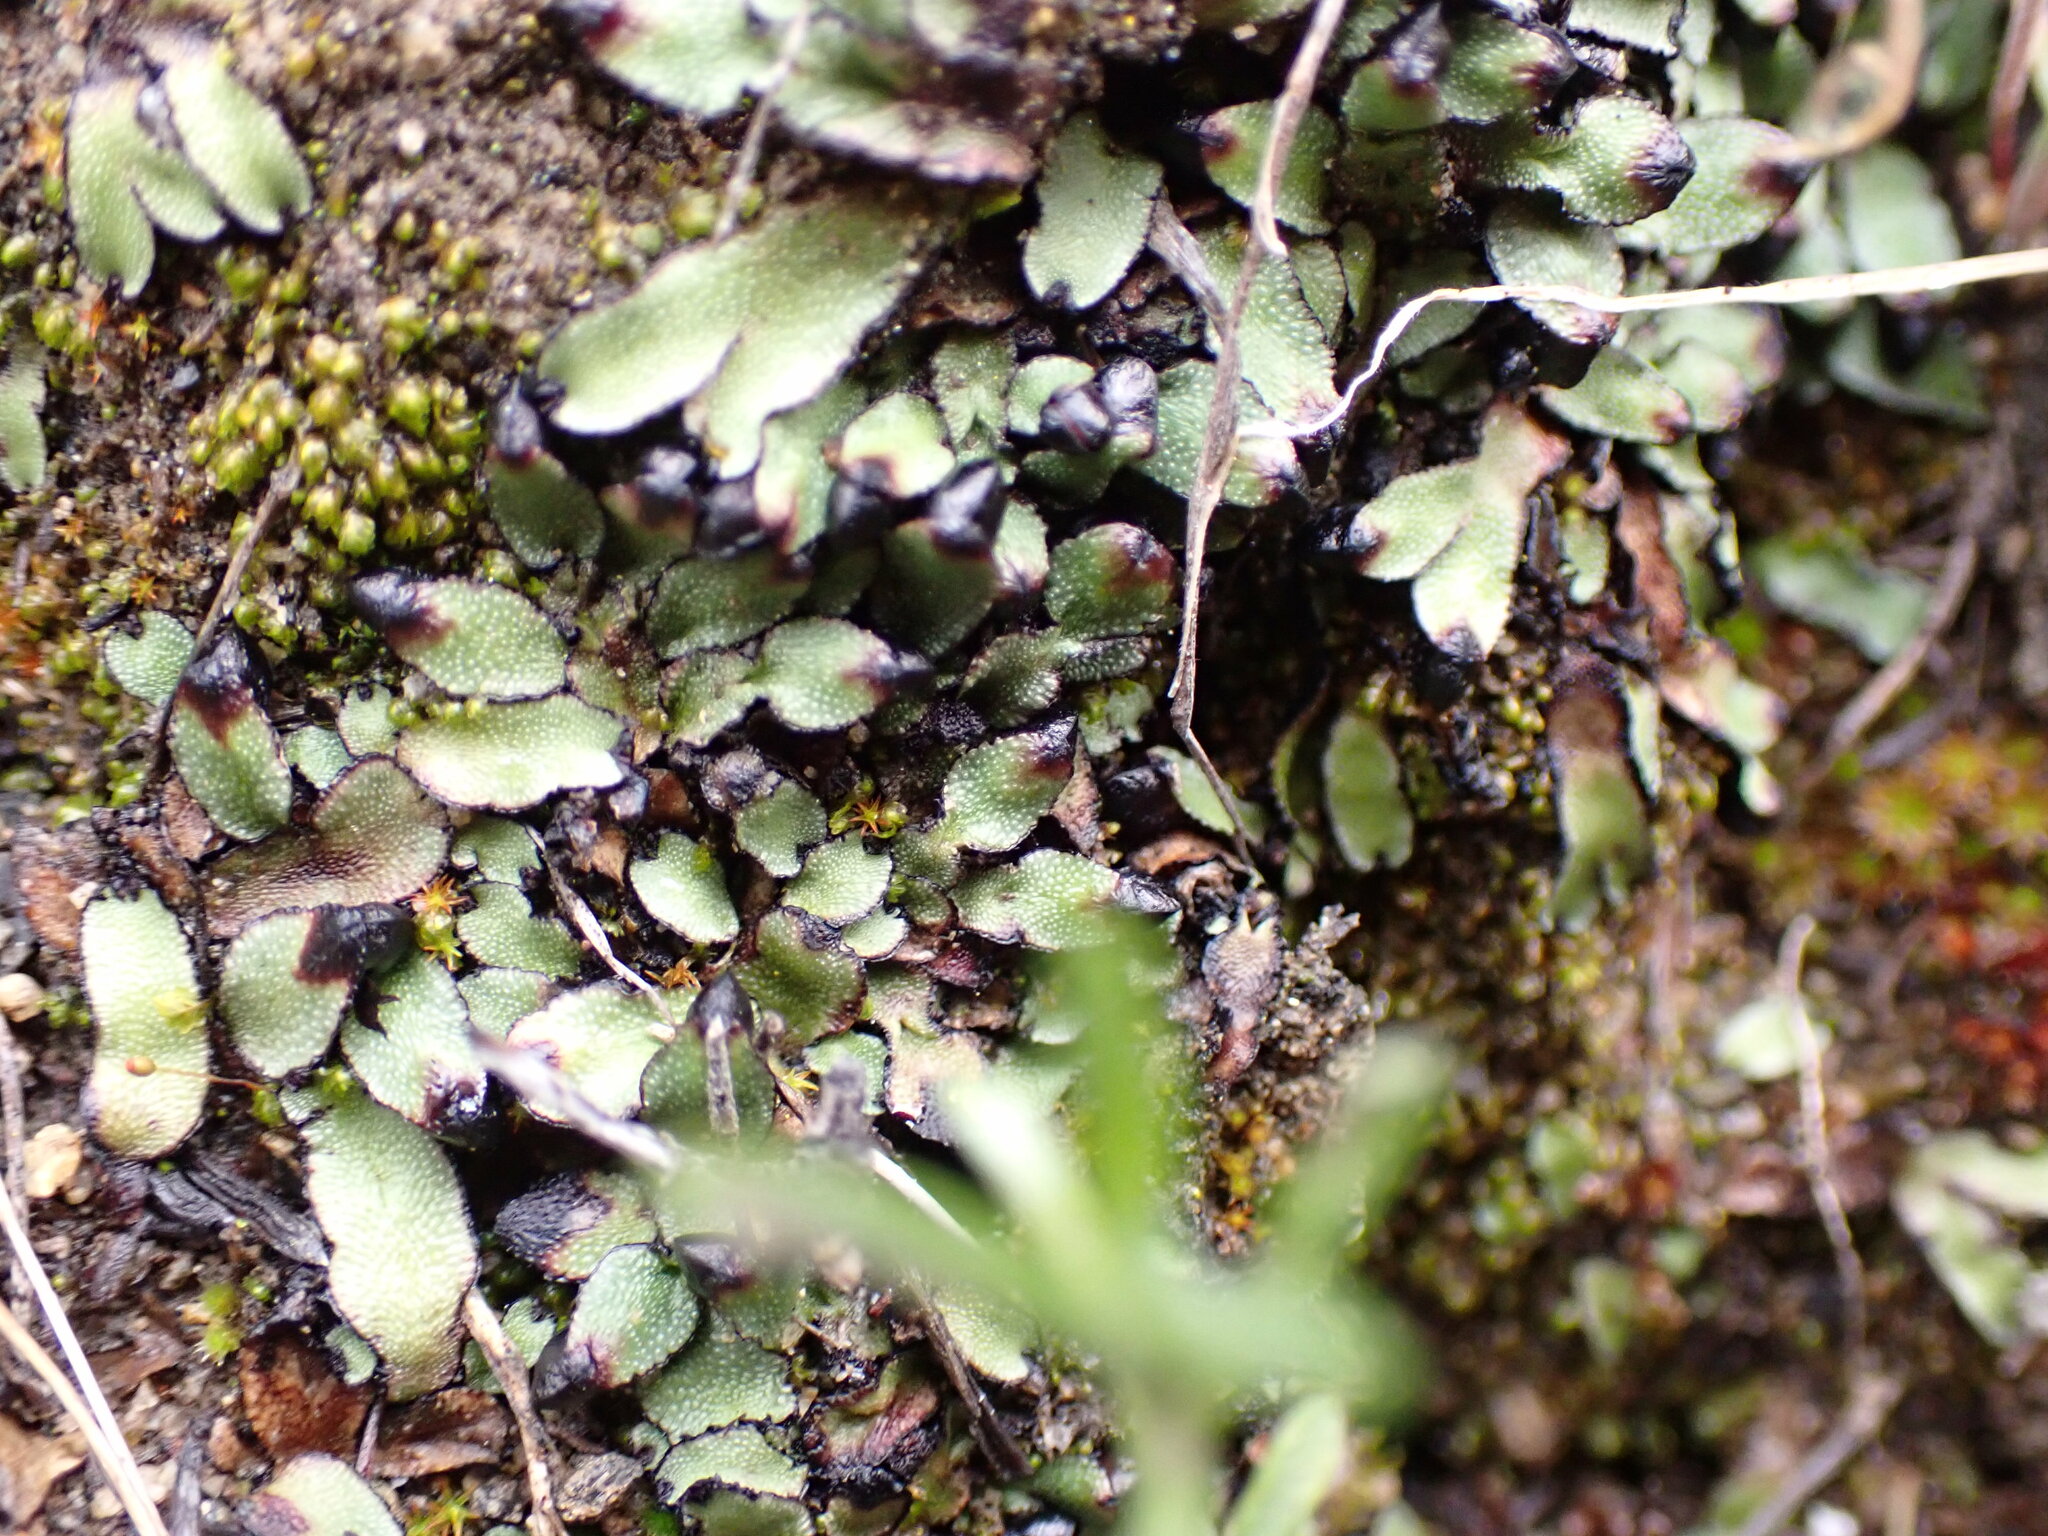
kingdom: Plantae
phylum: Marchantiophyta
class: Marchantiopsida
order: Marchantiales
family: Targioniaceae
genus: Targionia
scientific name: Targionia hypophylla
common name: Orobus-seed liverwort
